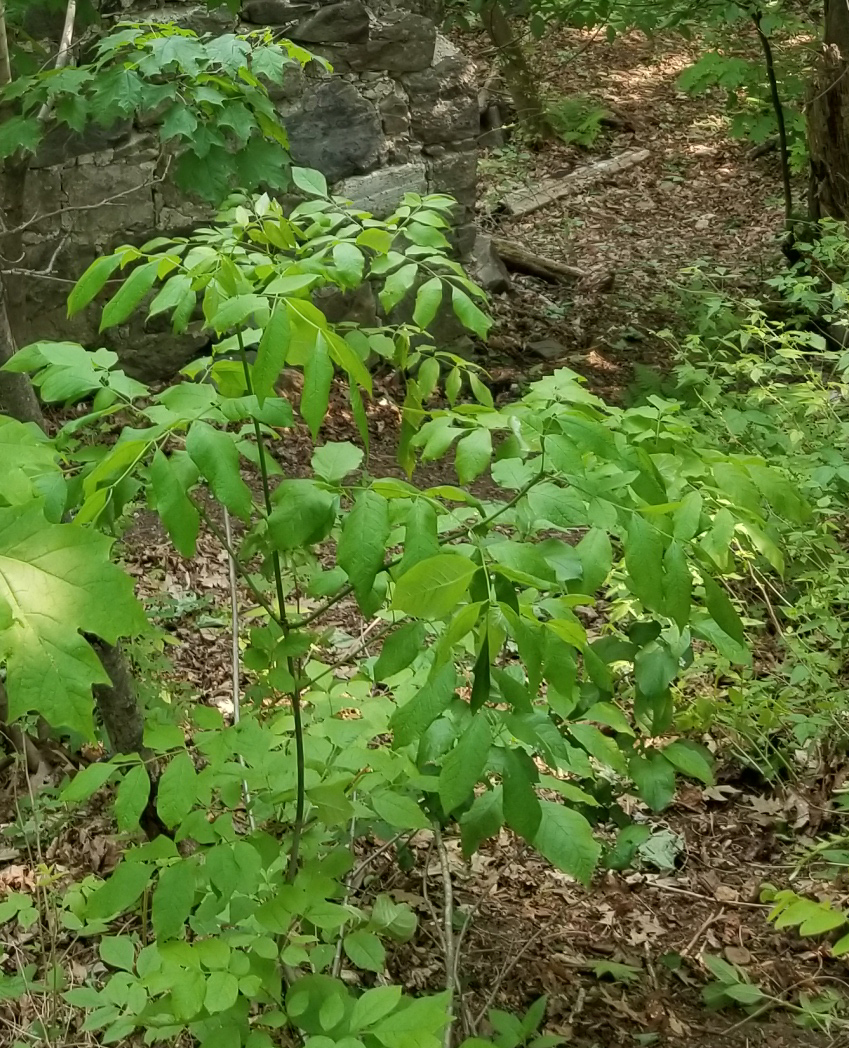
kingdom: Plantae
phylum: Tracheophyta
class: Magnoliopsida
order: Lamiales
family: Oleaceae
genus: Fraxinus
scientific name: Fraxinus americana
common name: White ash
